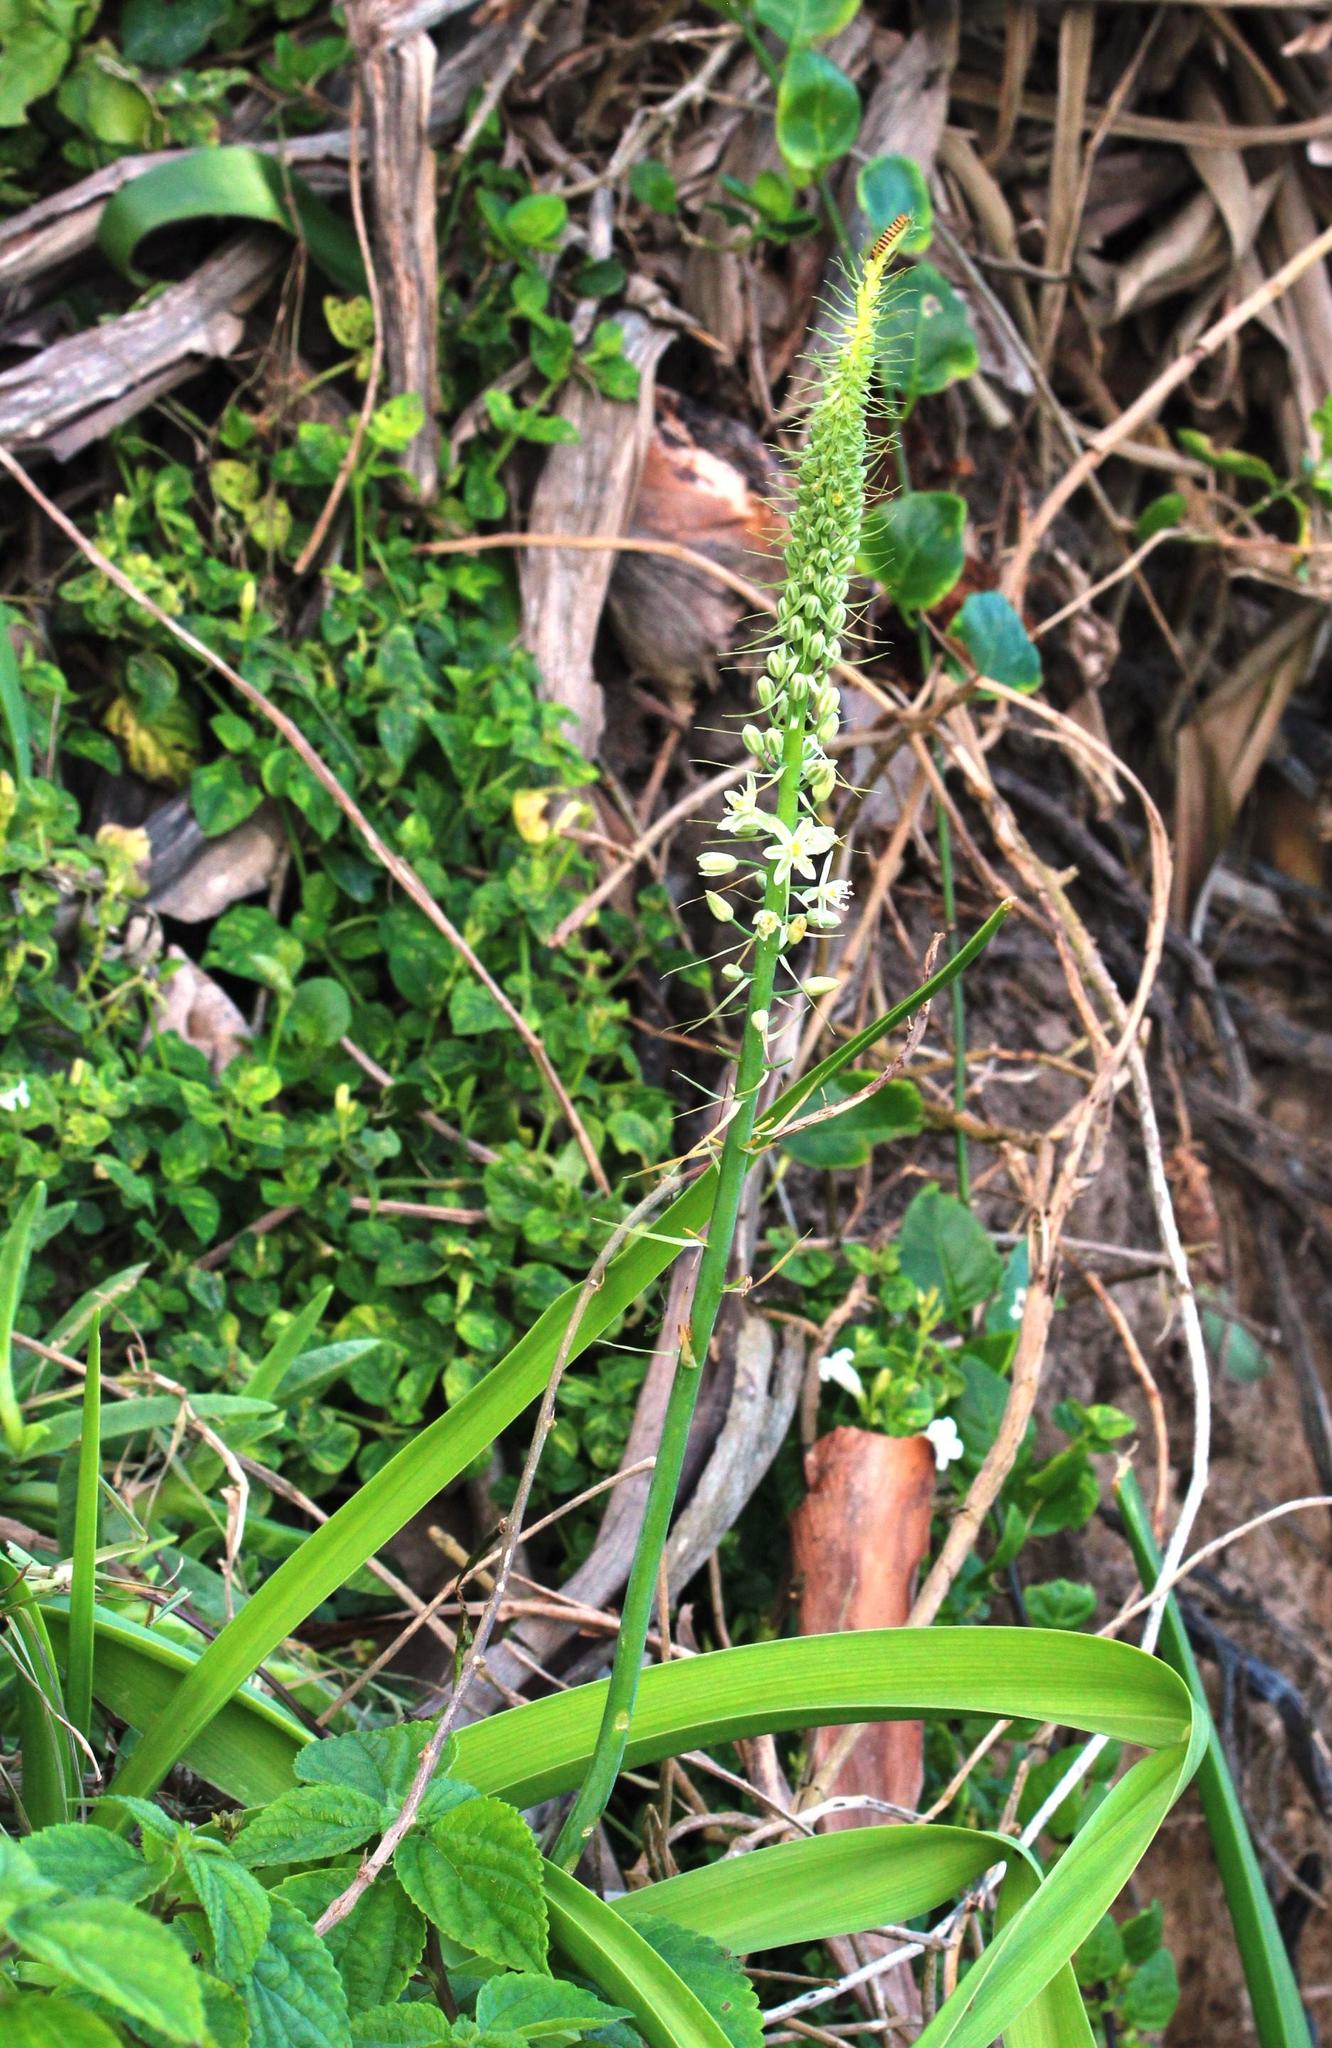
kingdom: Plantae
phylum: Tracheophyta
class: Liliopsida
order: Asparagales
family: Asparagaceae
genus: Albuca
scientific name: Albuca bracteata
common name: Sea-onion
